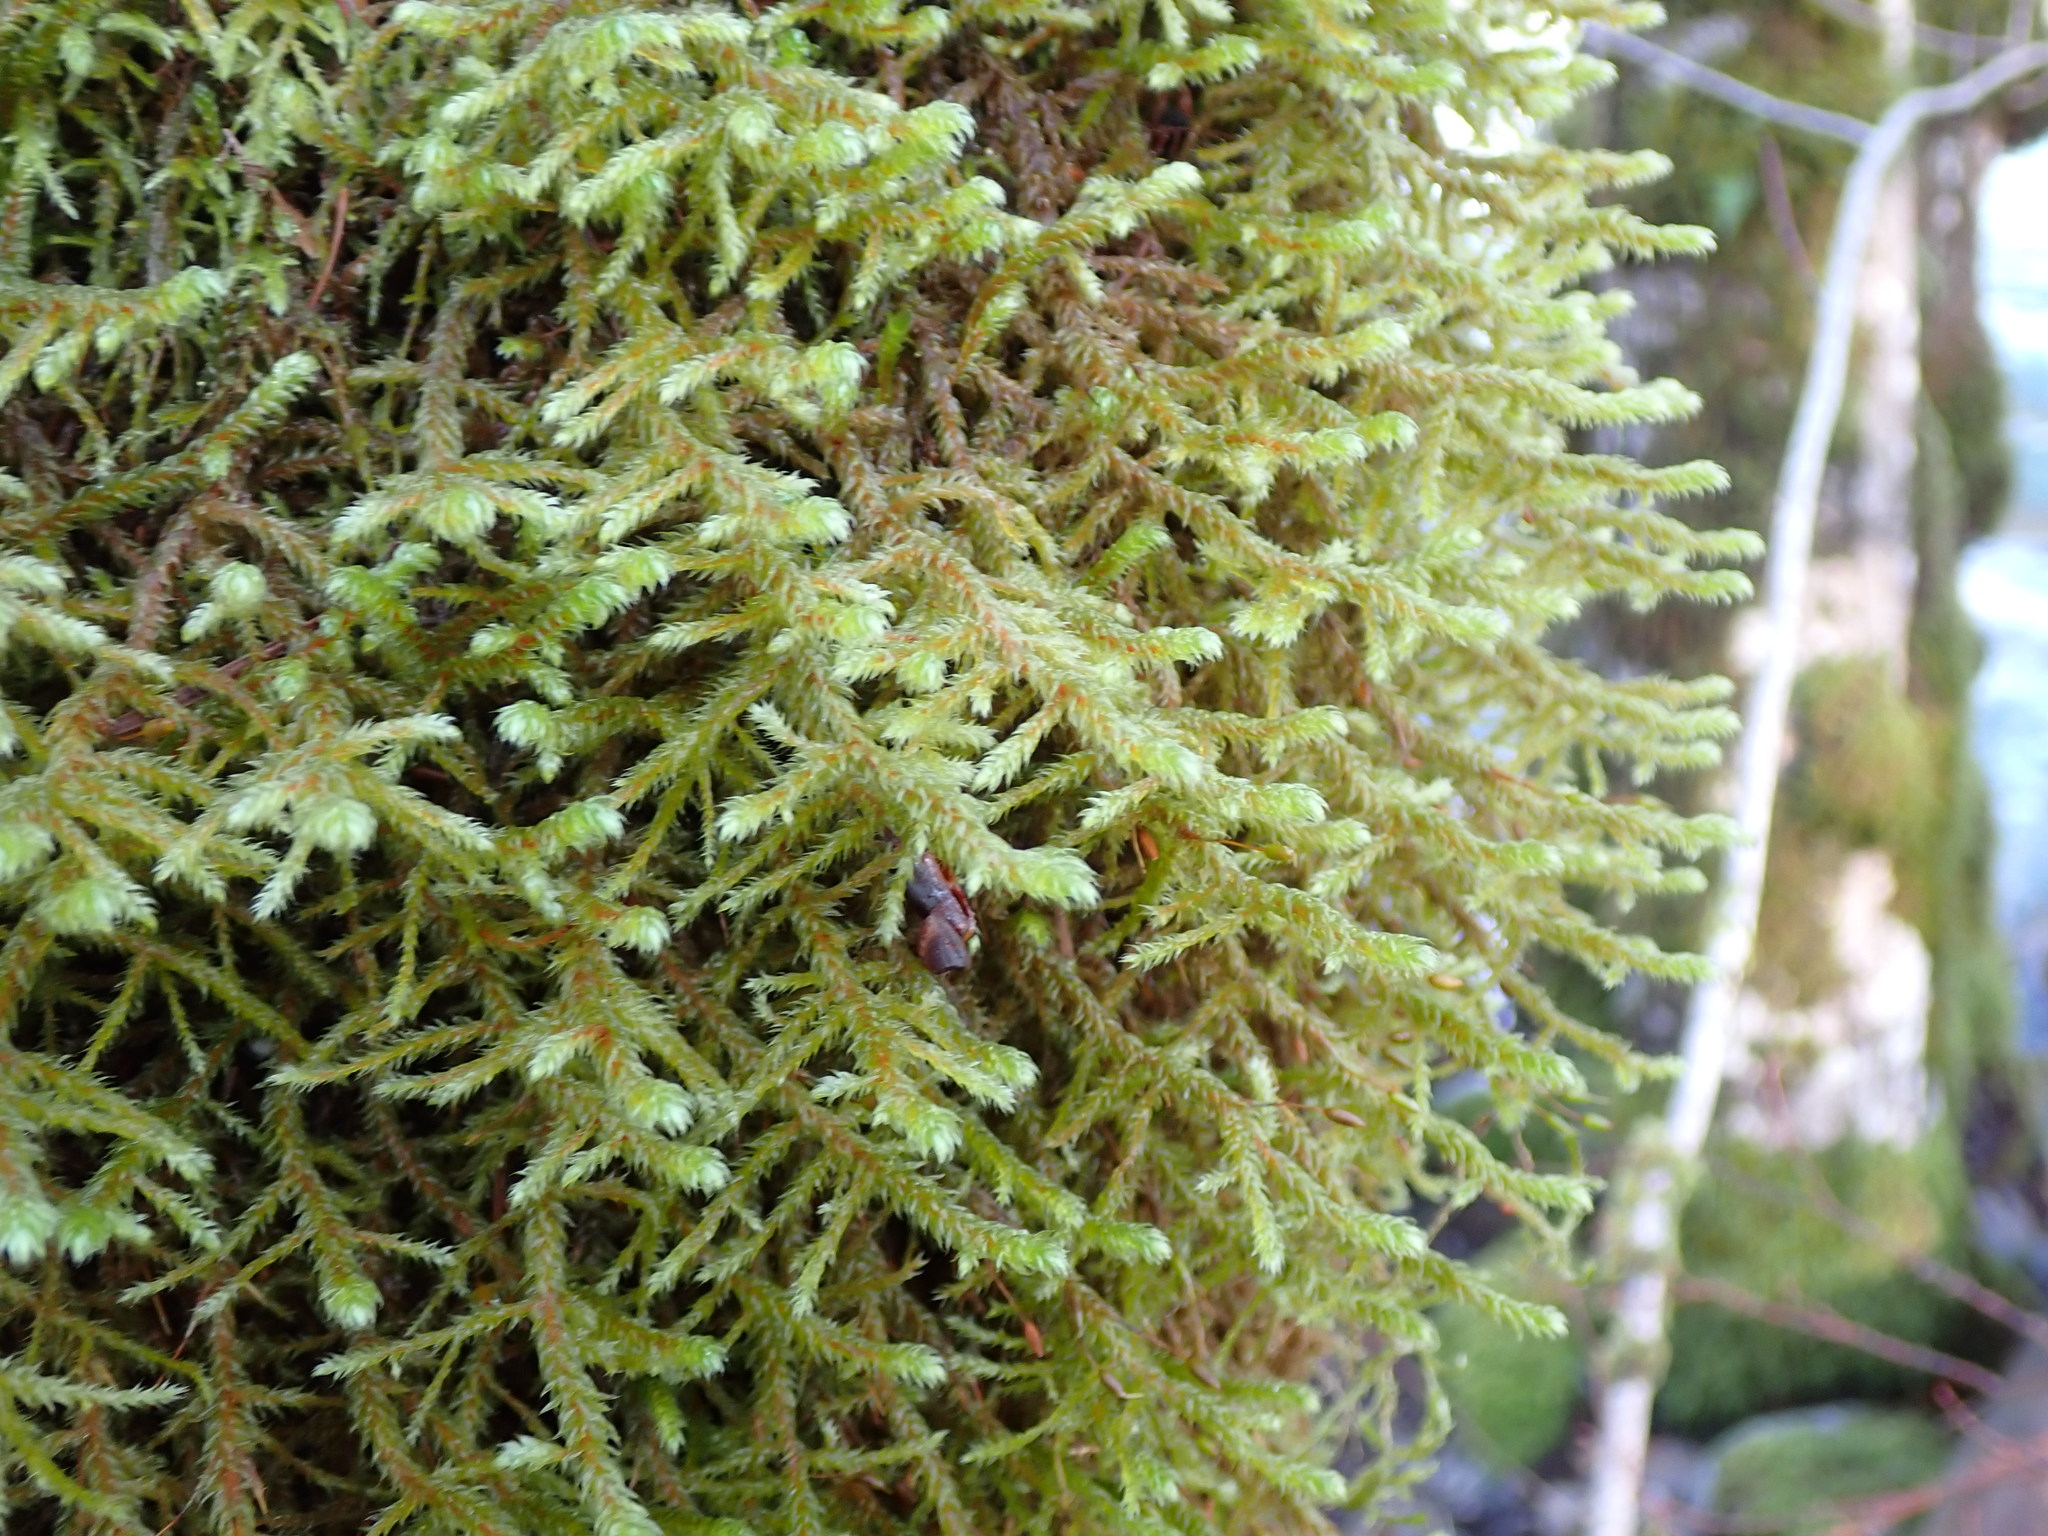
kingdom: Plantae
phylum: Bryophyta
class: Bryopsida
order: Hypnales
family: Antitrichiaceae
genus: Antitrichia
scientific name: Antitrichia curtipendula
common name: Pendulous wing-moss
